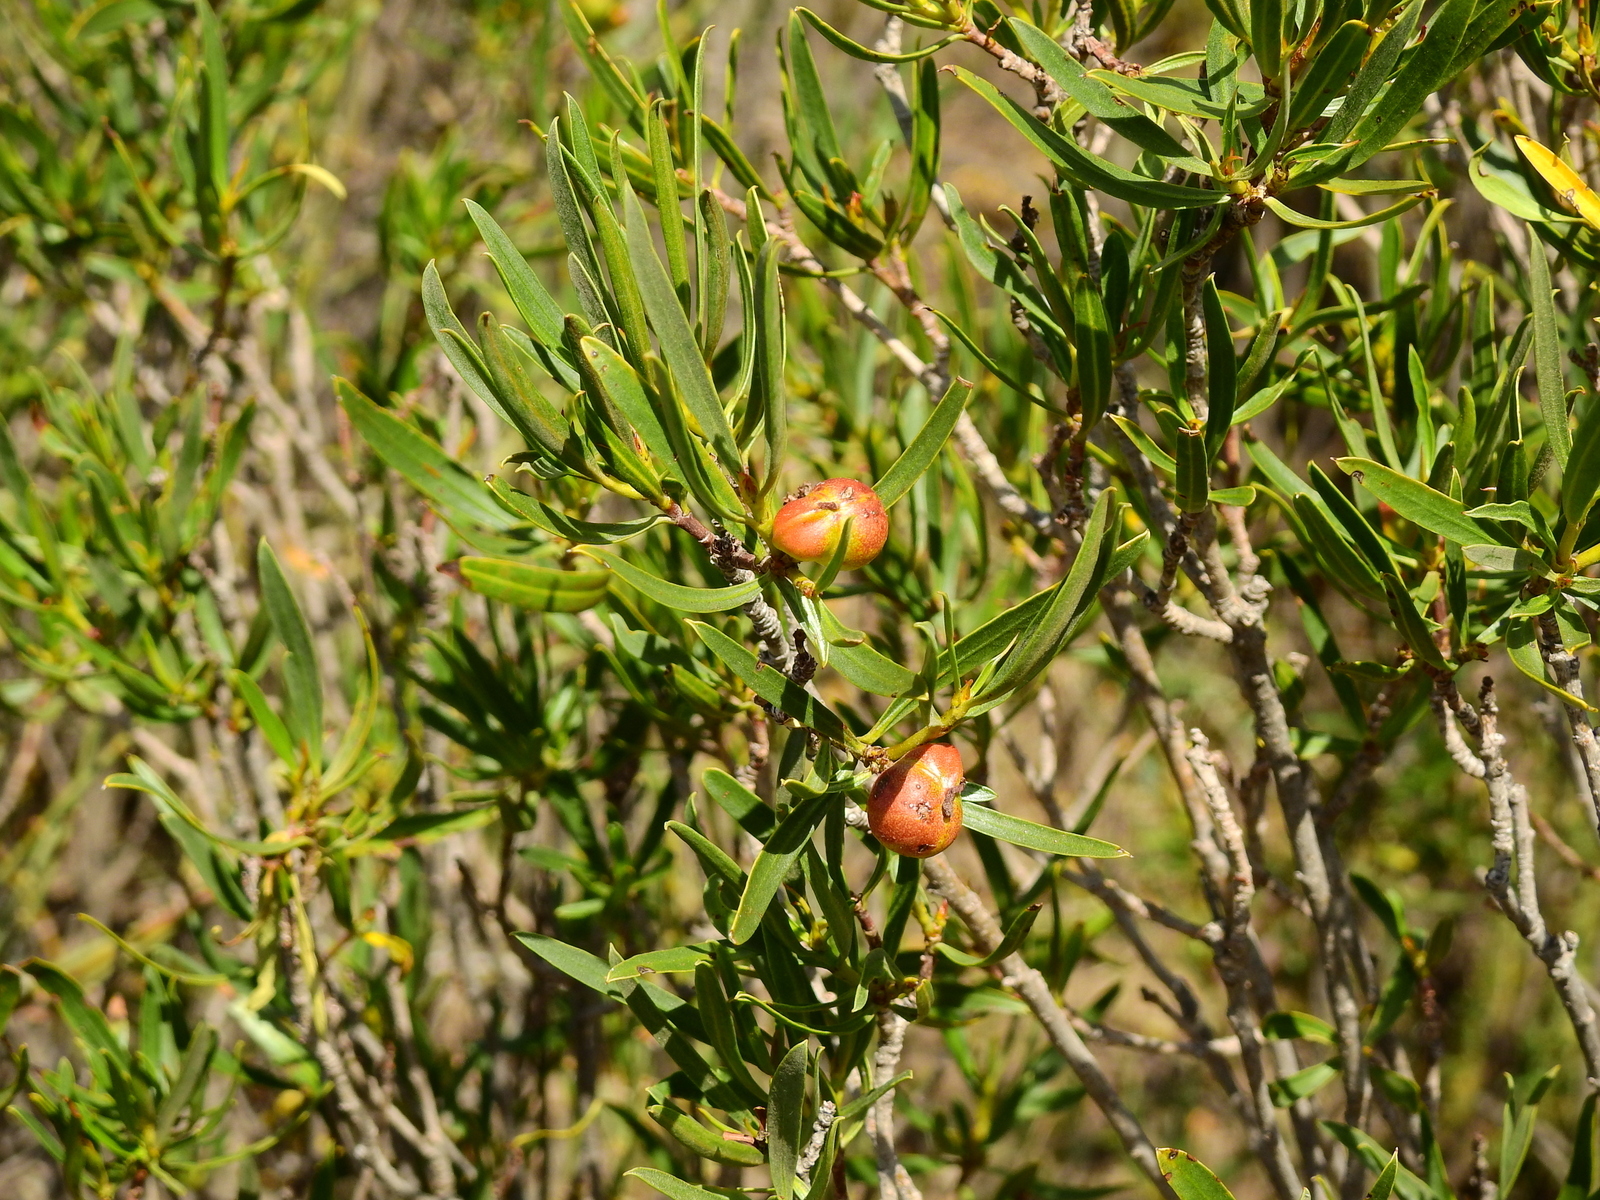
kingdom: Plantae
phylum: Tracheophyta
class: Magnoliopsida
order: Malpighiales
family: Euphorbiaceae
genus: Colliguaja
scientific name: Colliguaja integerrima
